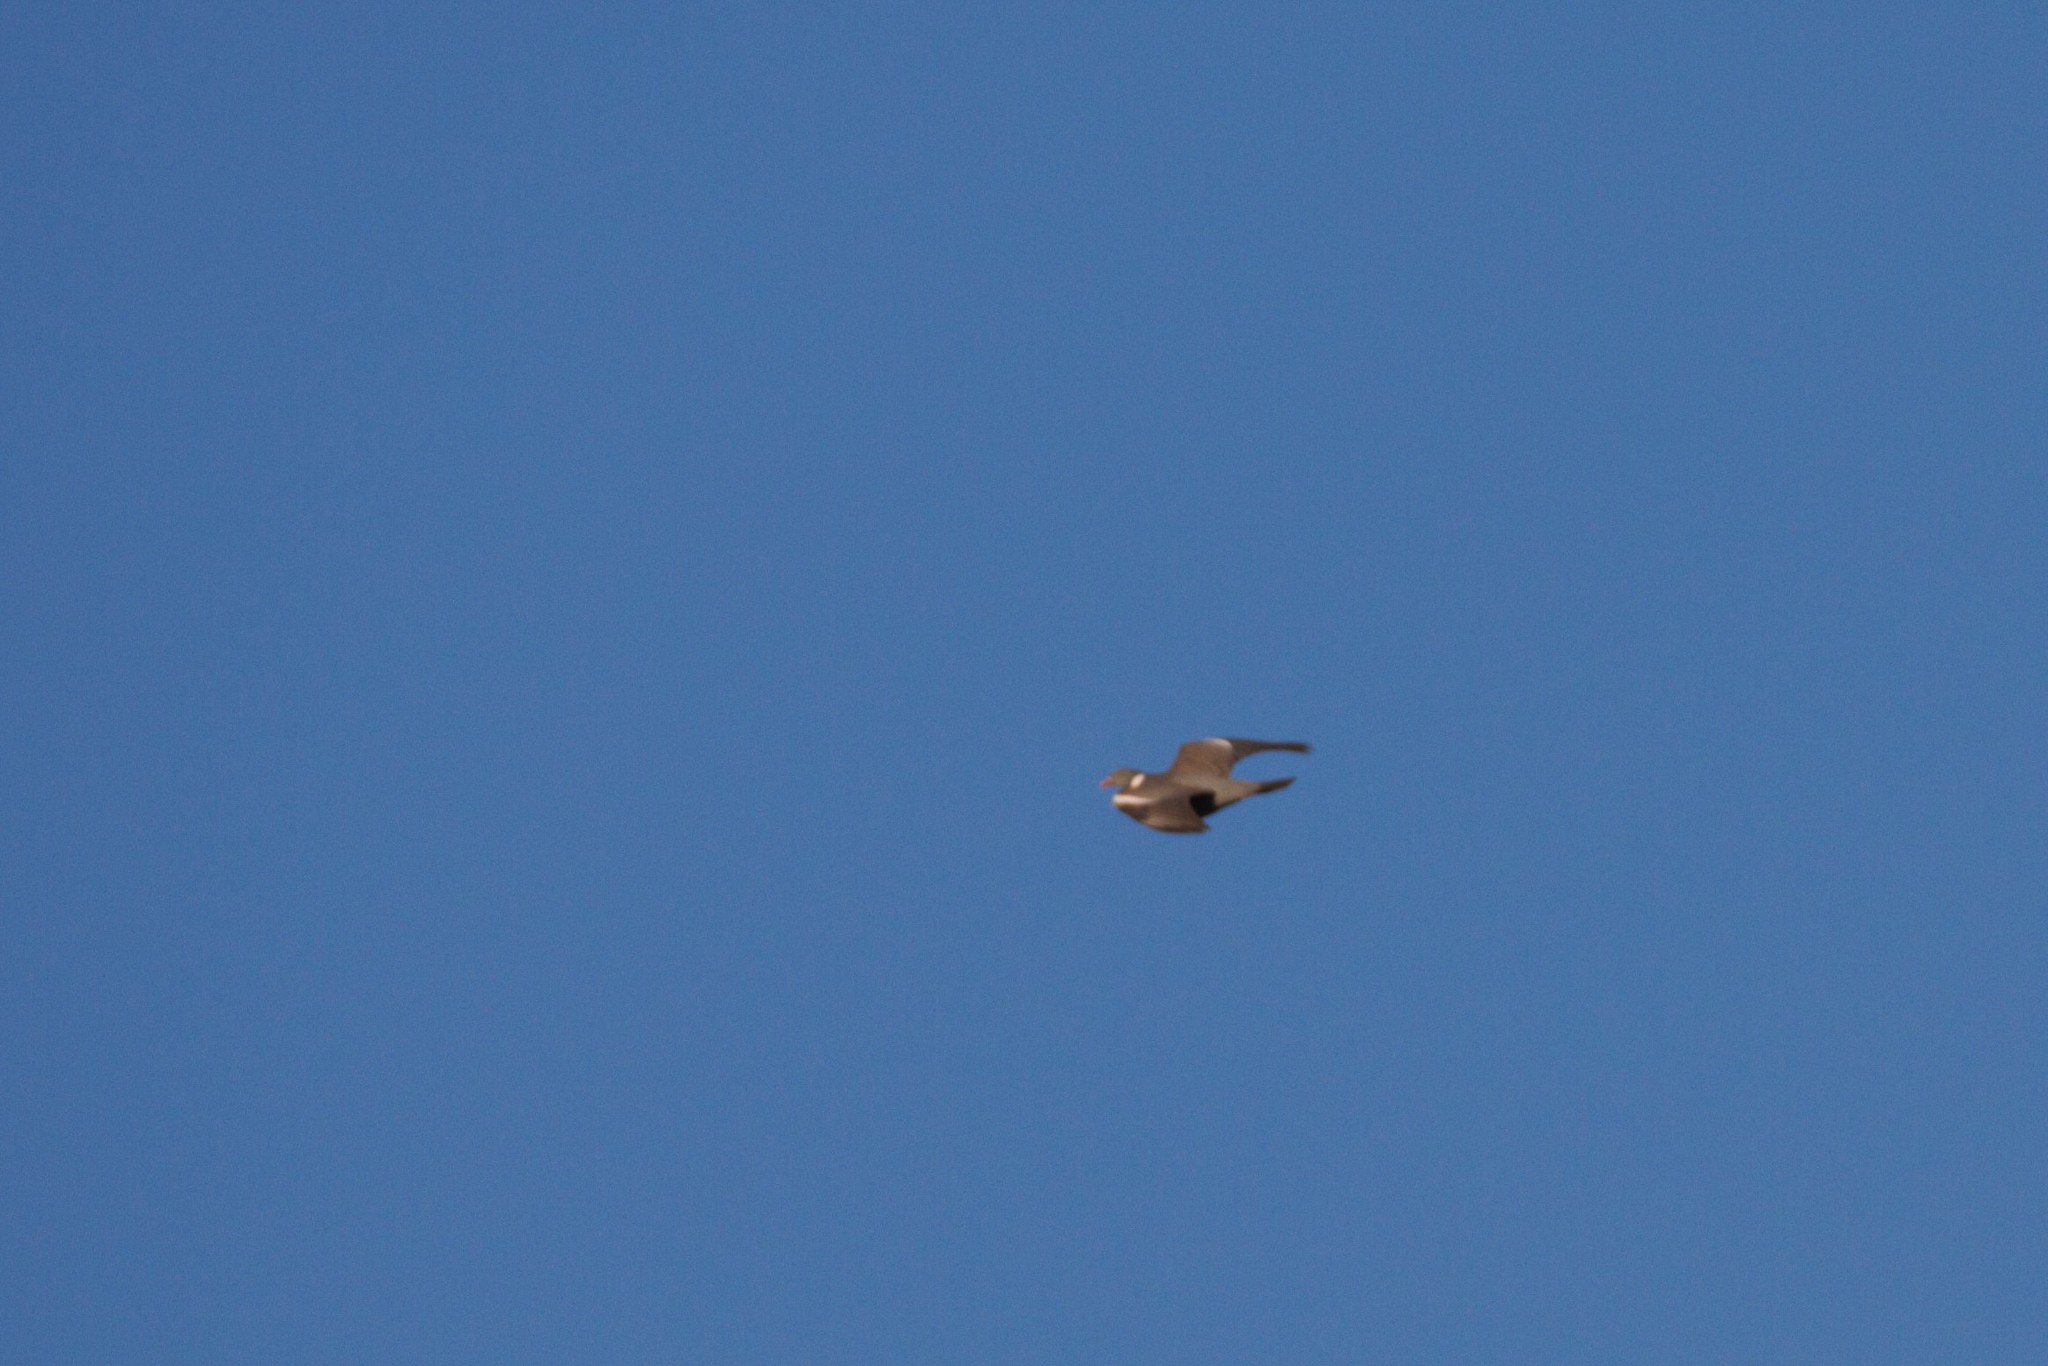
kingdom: Animalia
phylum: Chordata
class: Aves
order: Columbiformes
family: Columbidae
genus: Columba
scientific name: Columba palumbus
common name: Common wood pigeon
